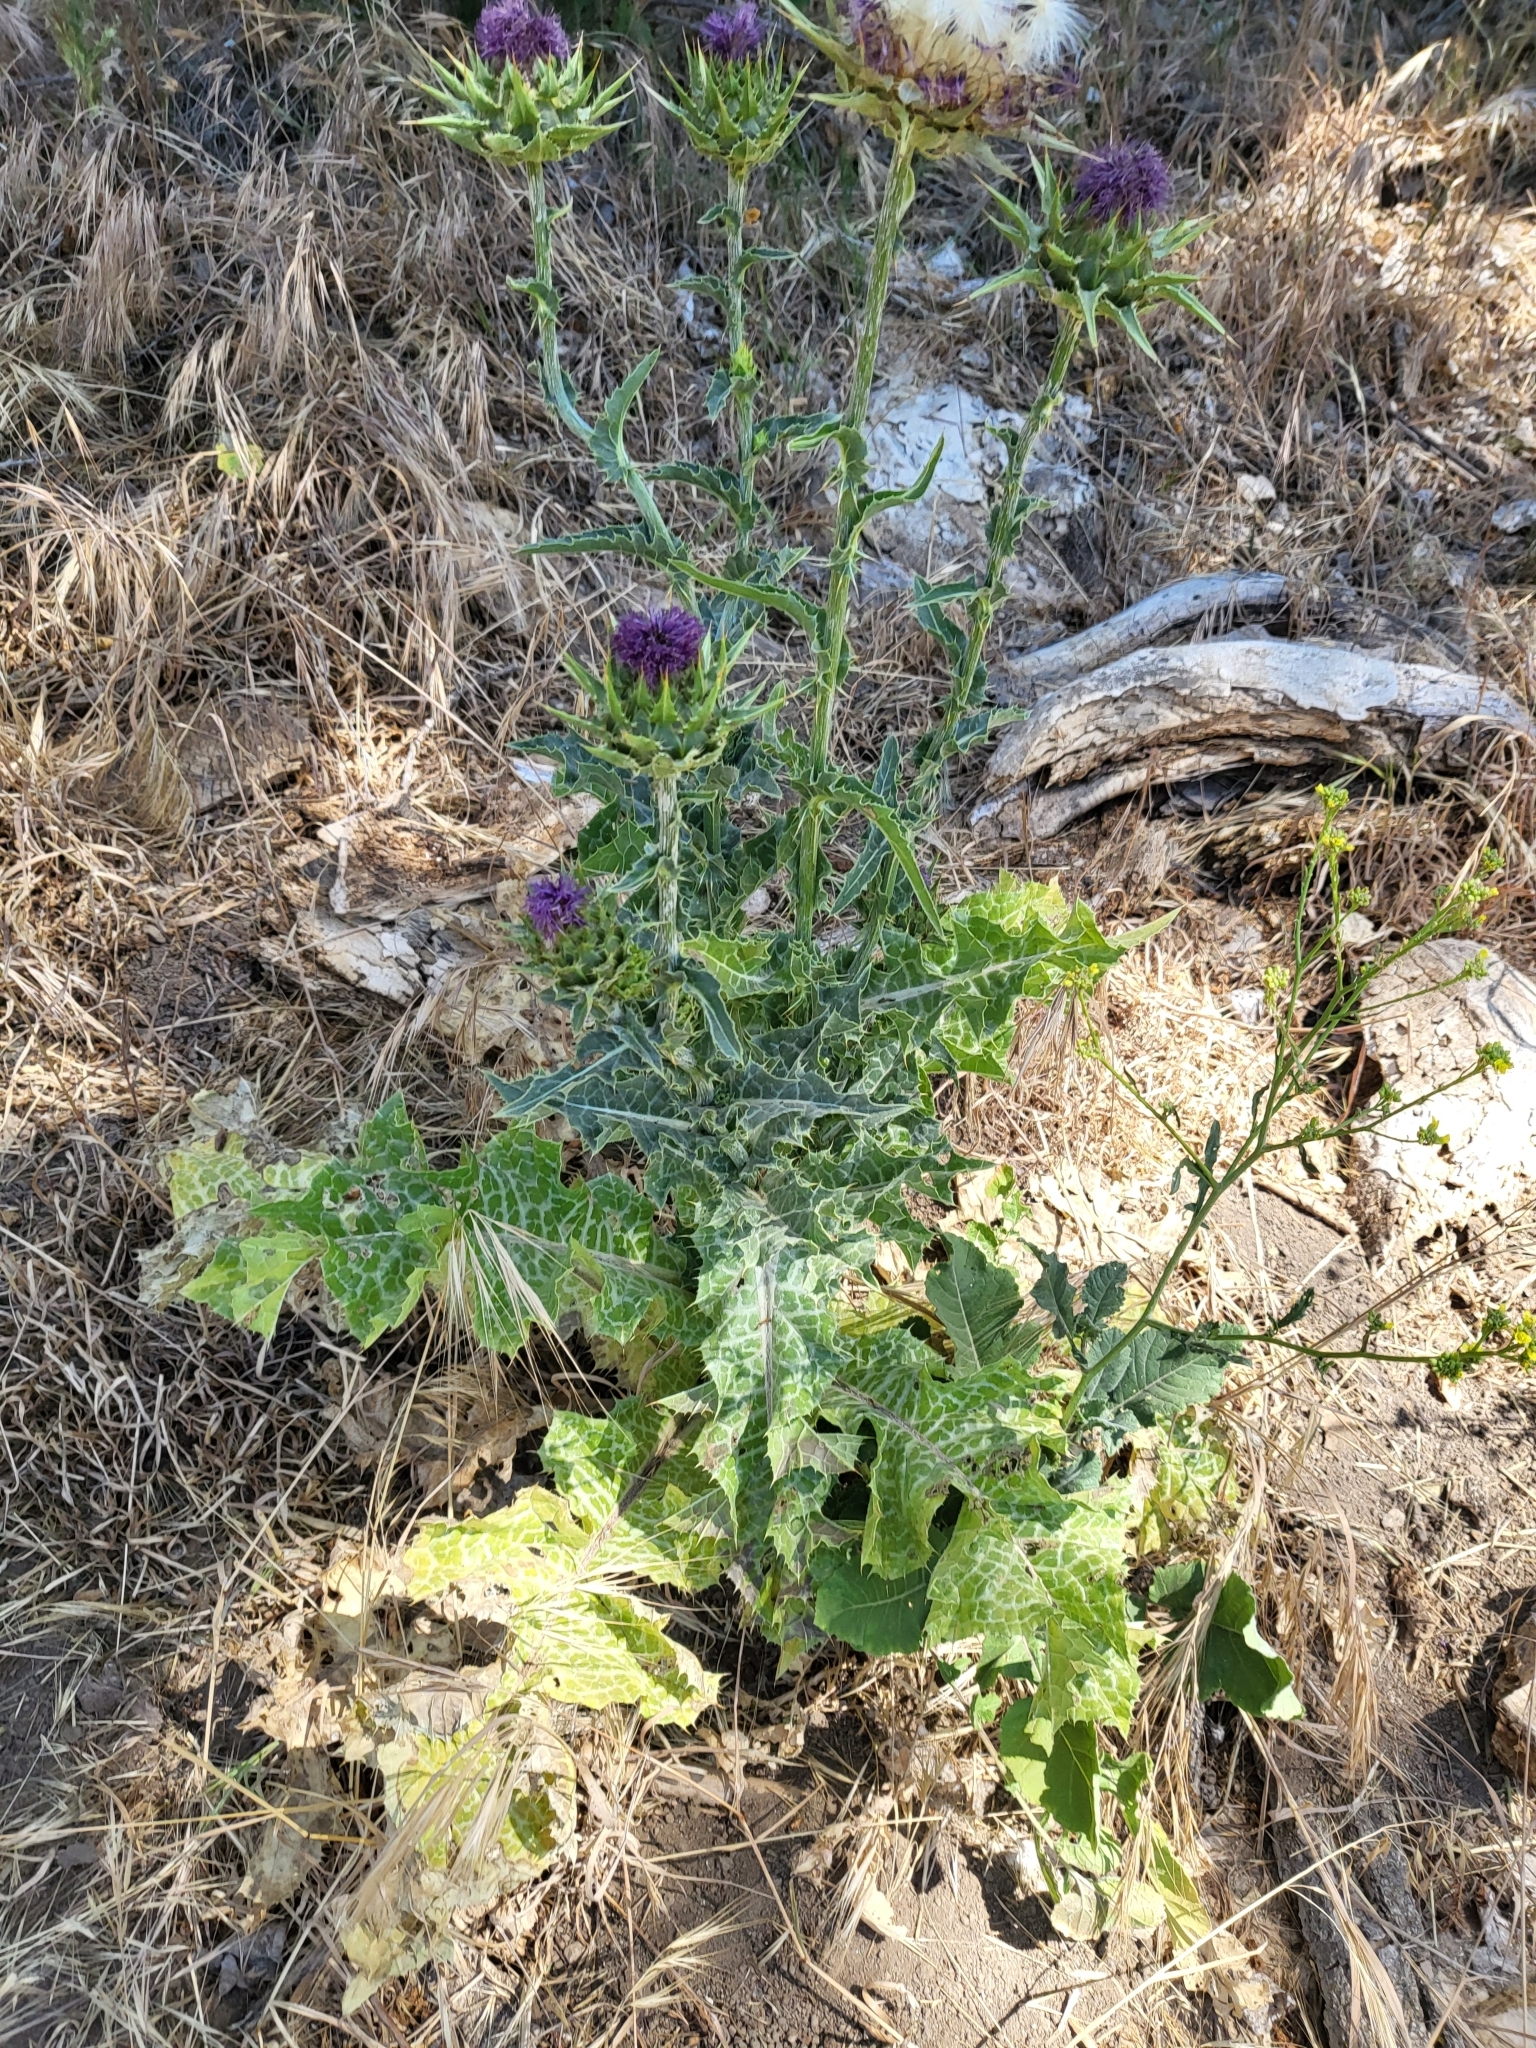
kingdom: Plantae
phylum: Tracheophyta
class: Magnoliopsida
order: Asterales
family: Asteraceae
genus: Silybum
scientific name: Silybum marianum
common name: Milk thistle
